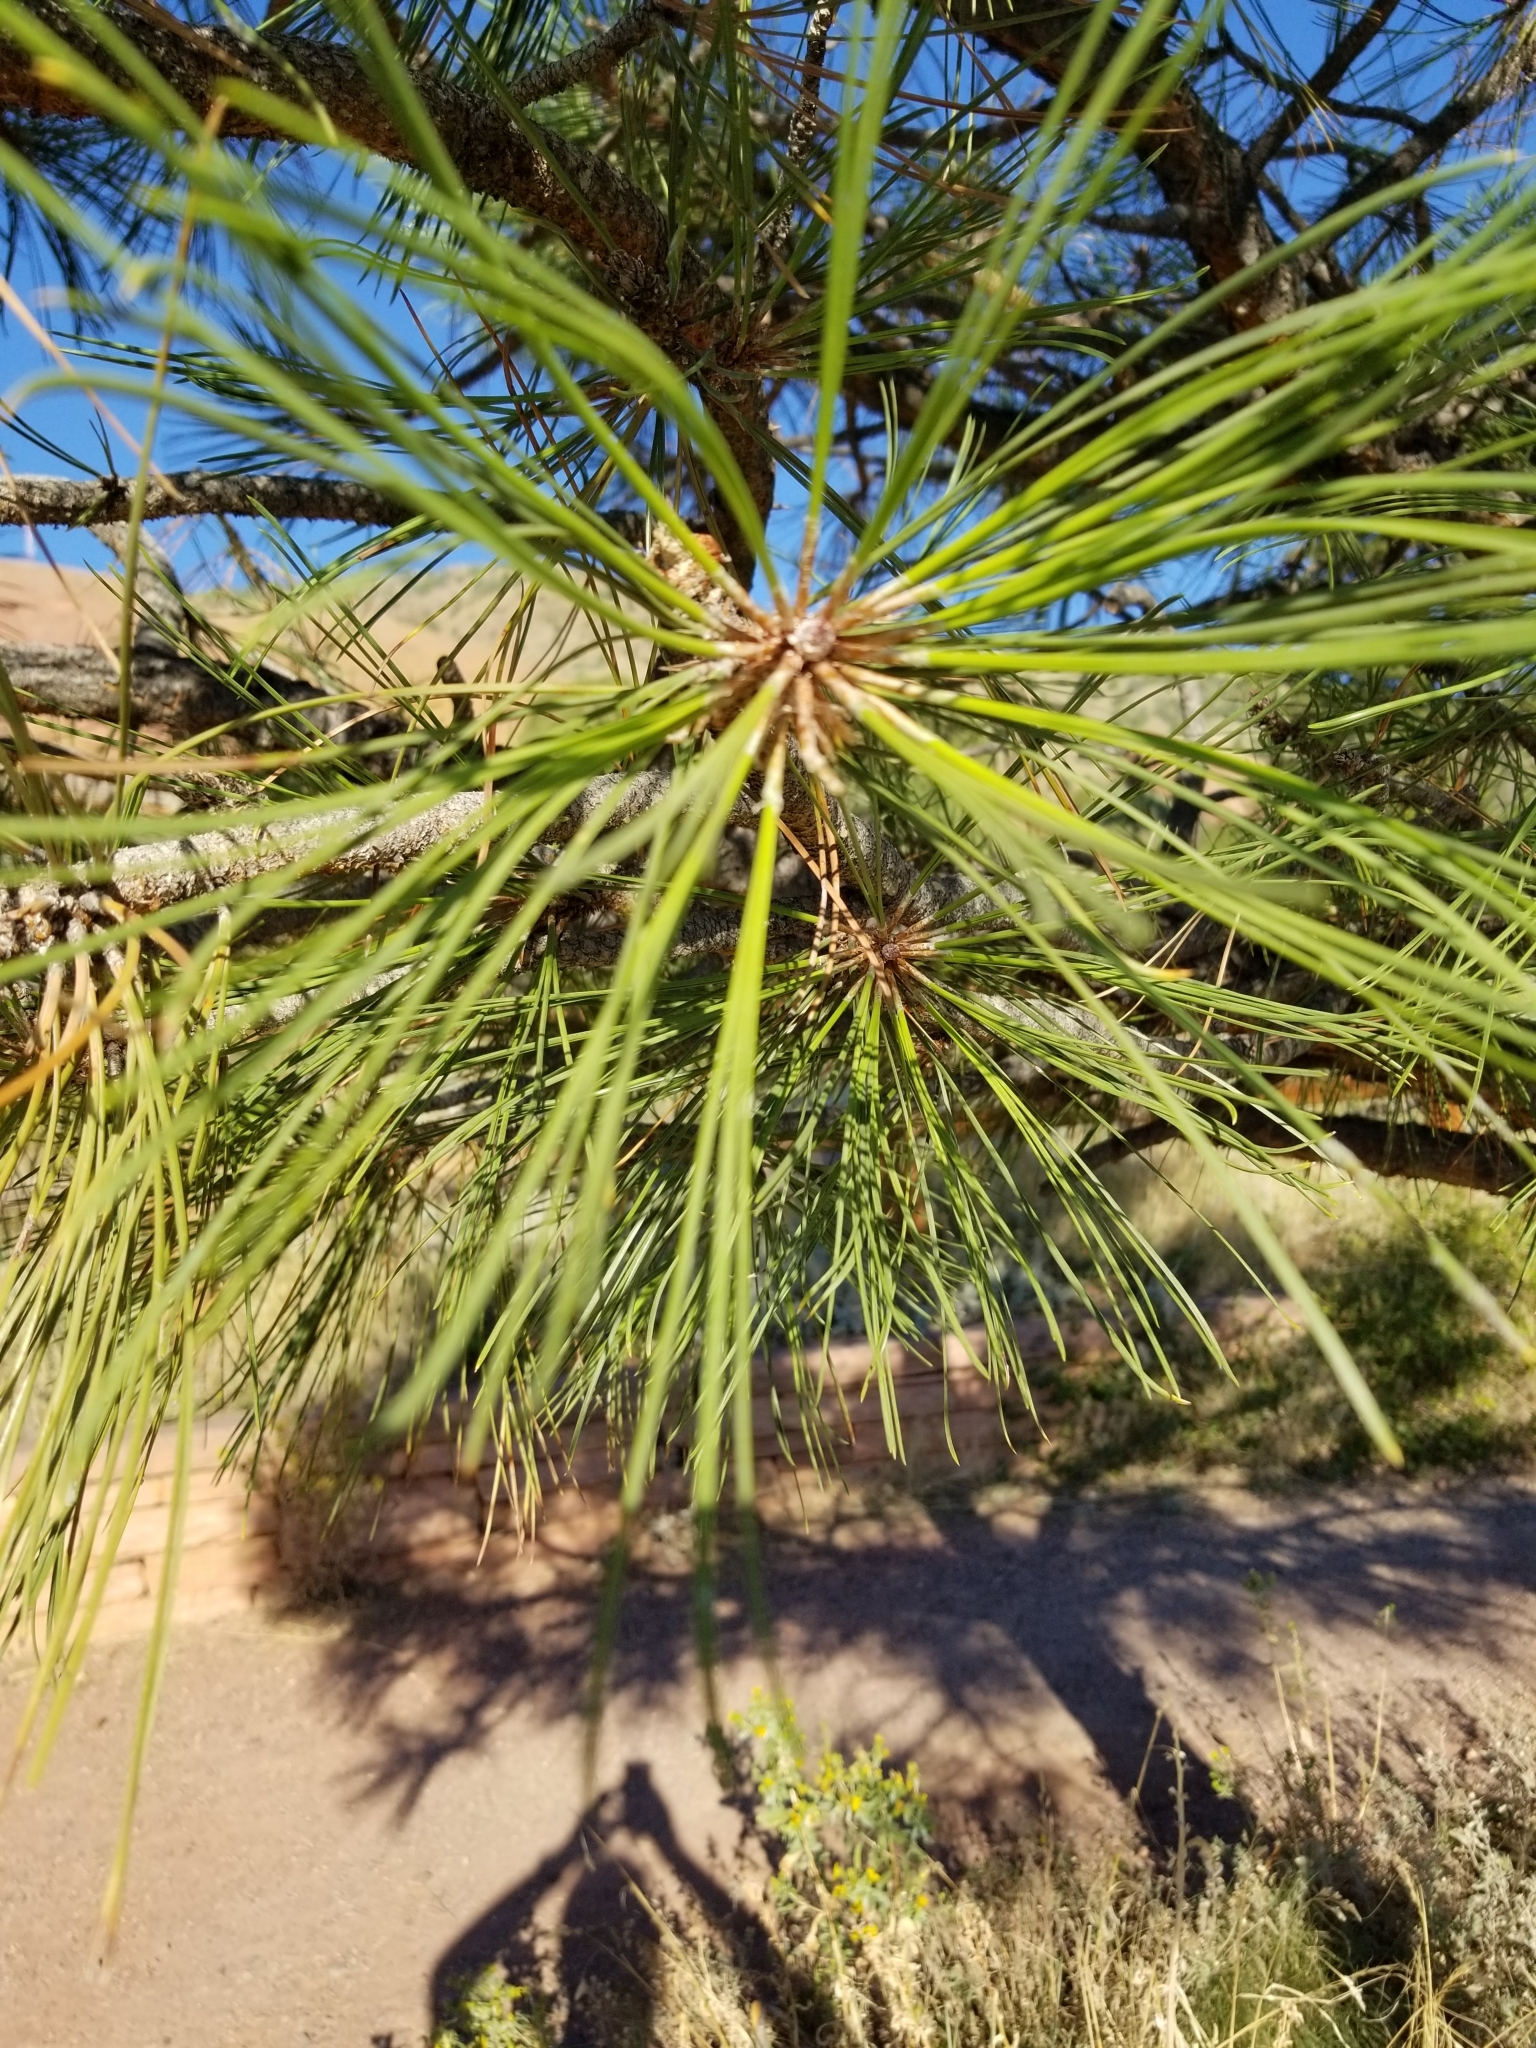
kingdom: Plantae
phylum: Tracheophyta
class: Pinopsida
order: Pinales
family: Pinaceae
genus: Pinus
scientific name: Pinus ponderosa
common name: Western yellow-pine
